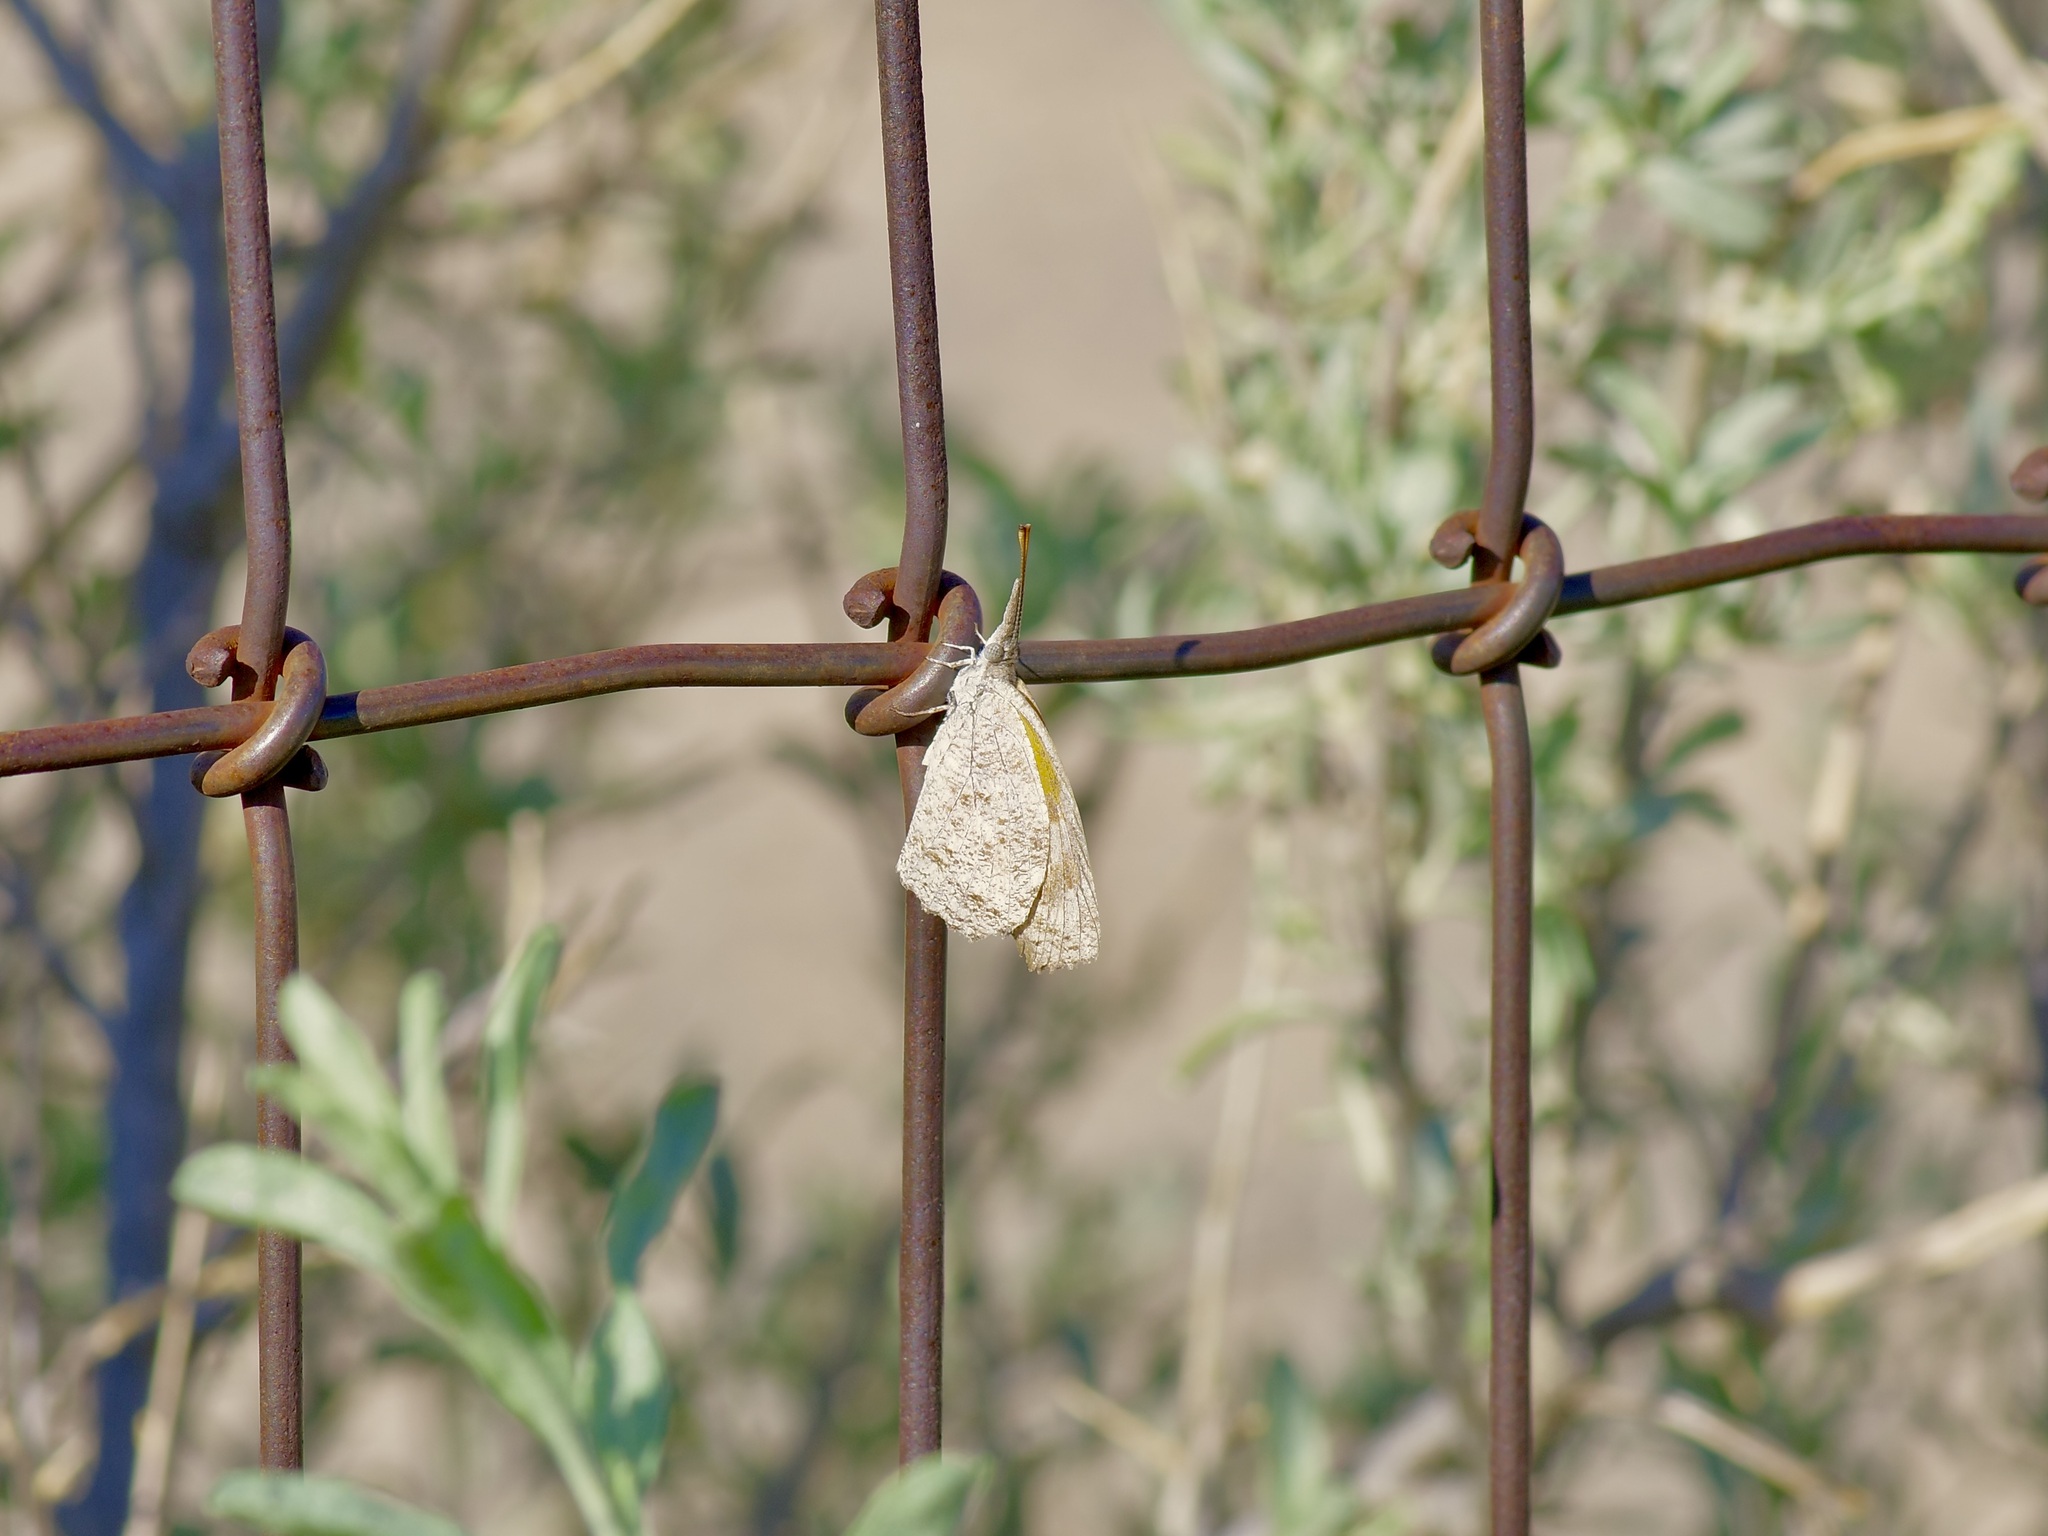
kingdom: Animalia
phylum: Arthropoda
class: Insecta
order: Lepidoptera
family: Nymphalidae
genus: Libytheana
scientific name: Libytheana carinenta
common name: American snout
